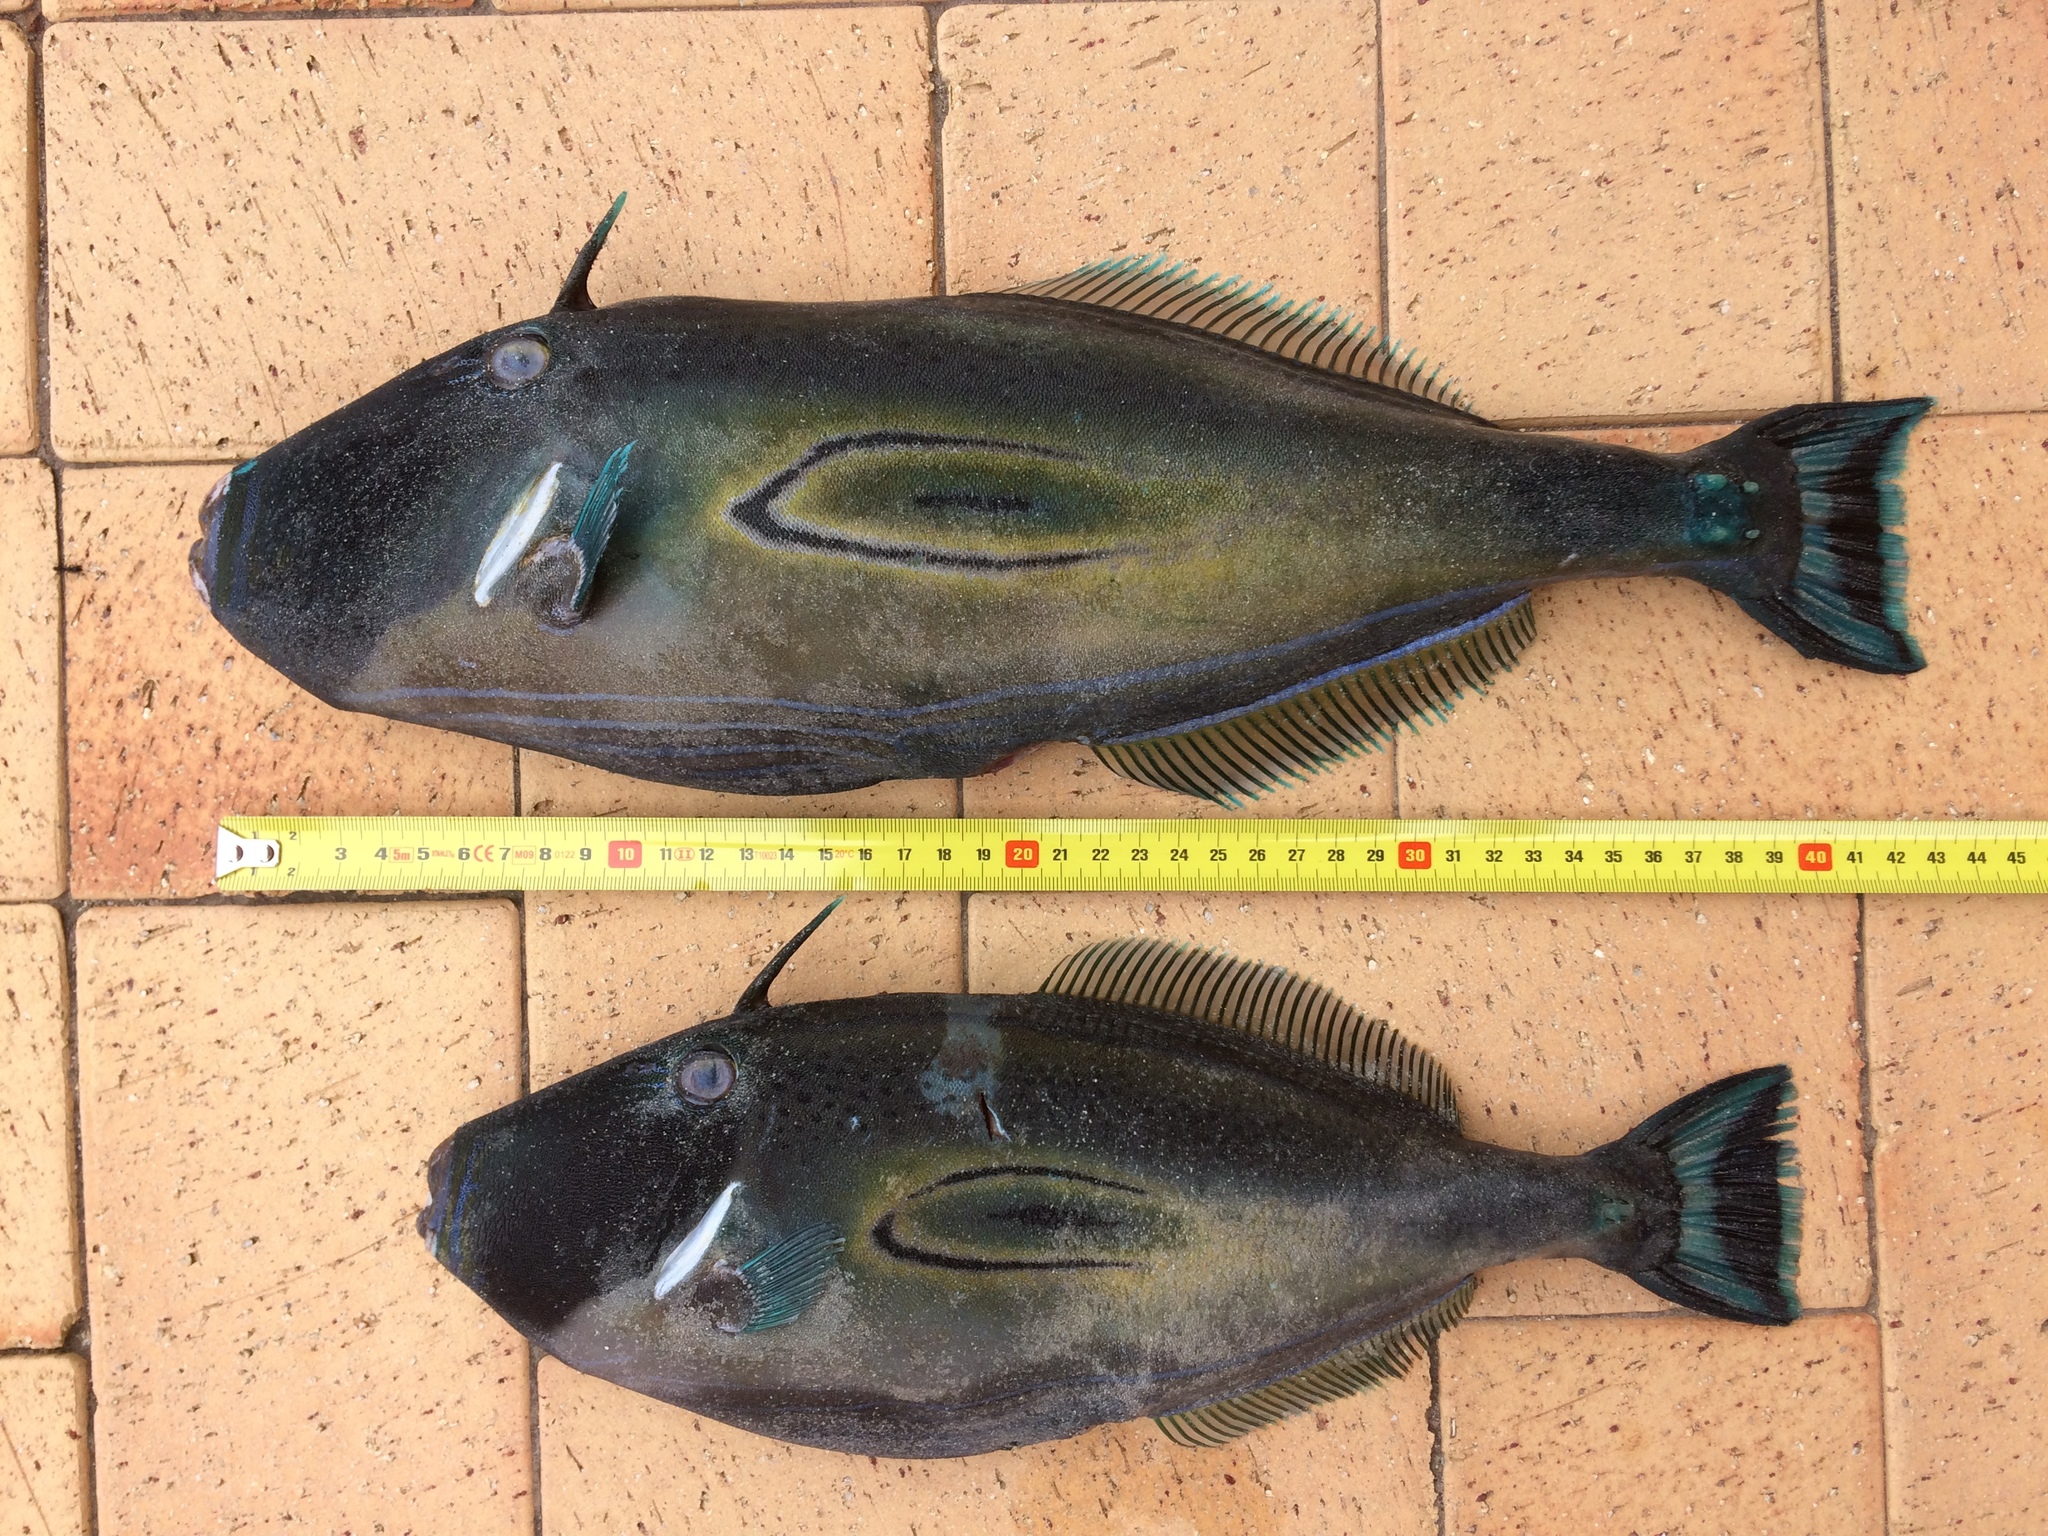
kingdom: Animalia
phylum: Chordata
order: Tetraodontiformes
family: Monacanthidae
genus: Meuschenia
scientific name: Meuschenia hippocrepis
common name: Horse-shoe leatherjacket
